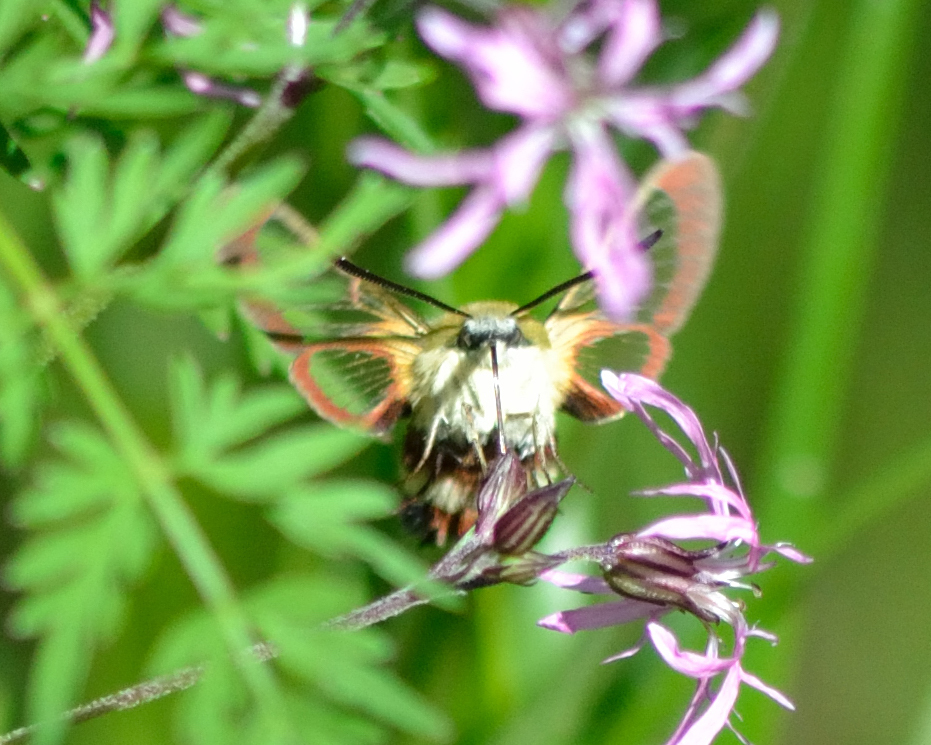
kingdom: Animalia
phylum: Arthropoda
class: Insecta
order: Lepidoptera
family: Sphingidae
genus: Hemaris
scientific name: Hemaris fuciformis
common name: Broad-bordered bee hawk-moth
